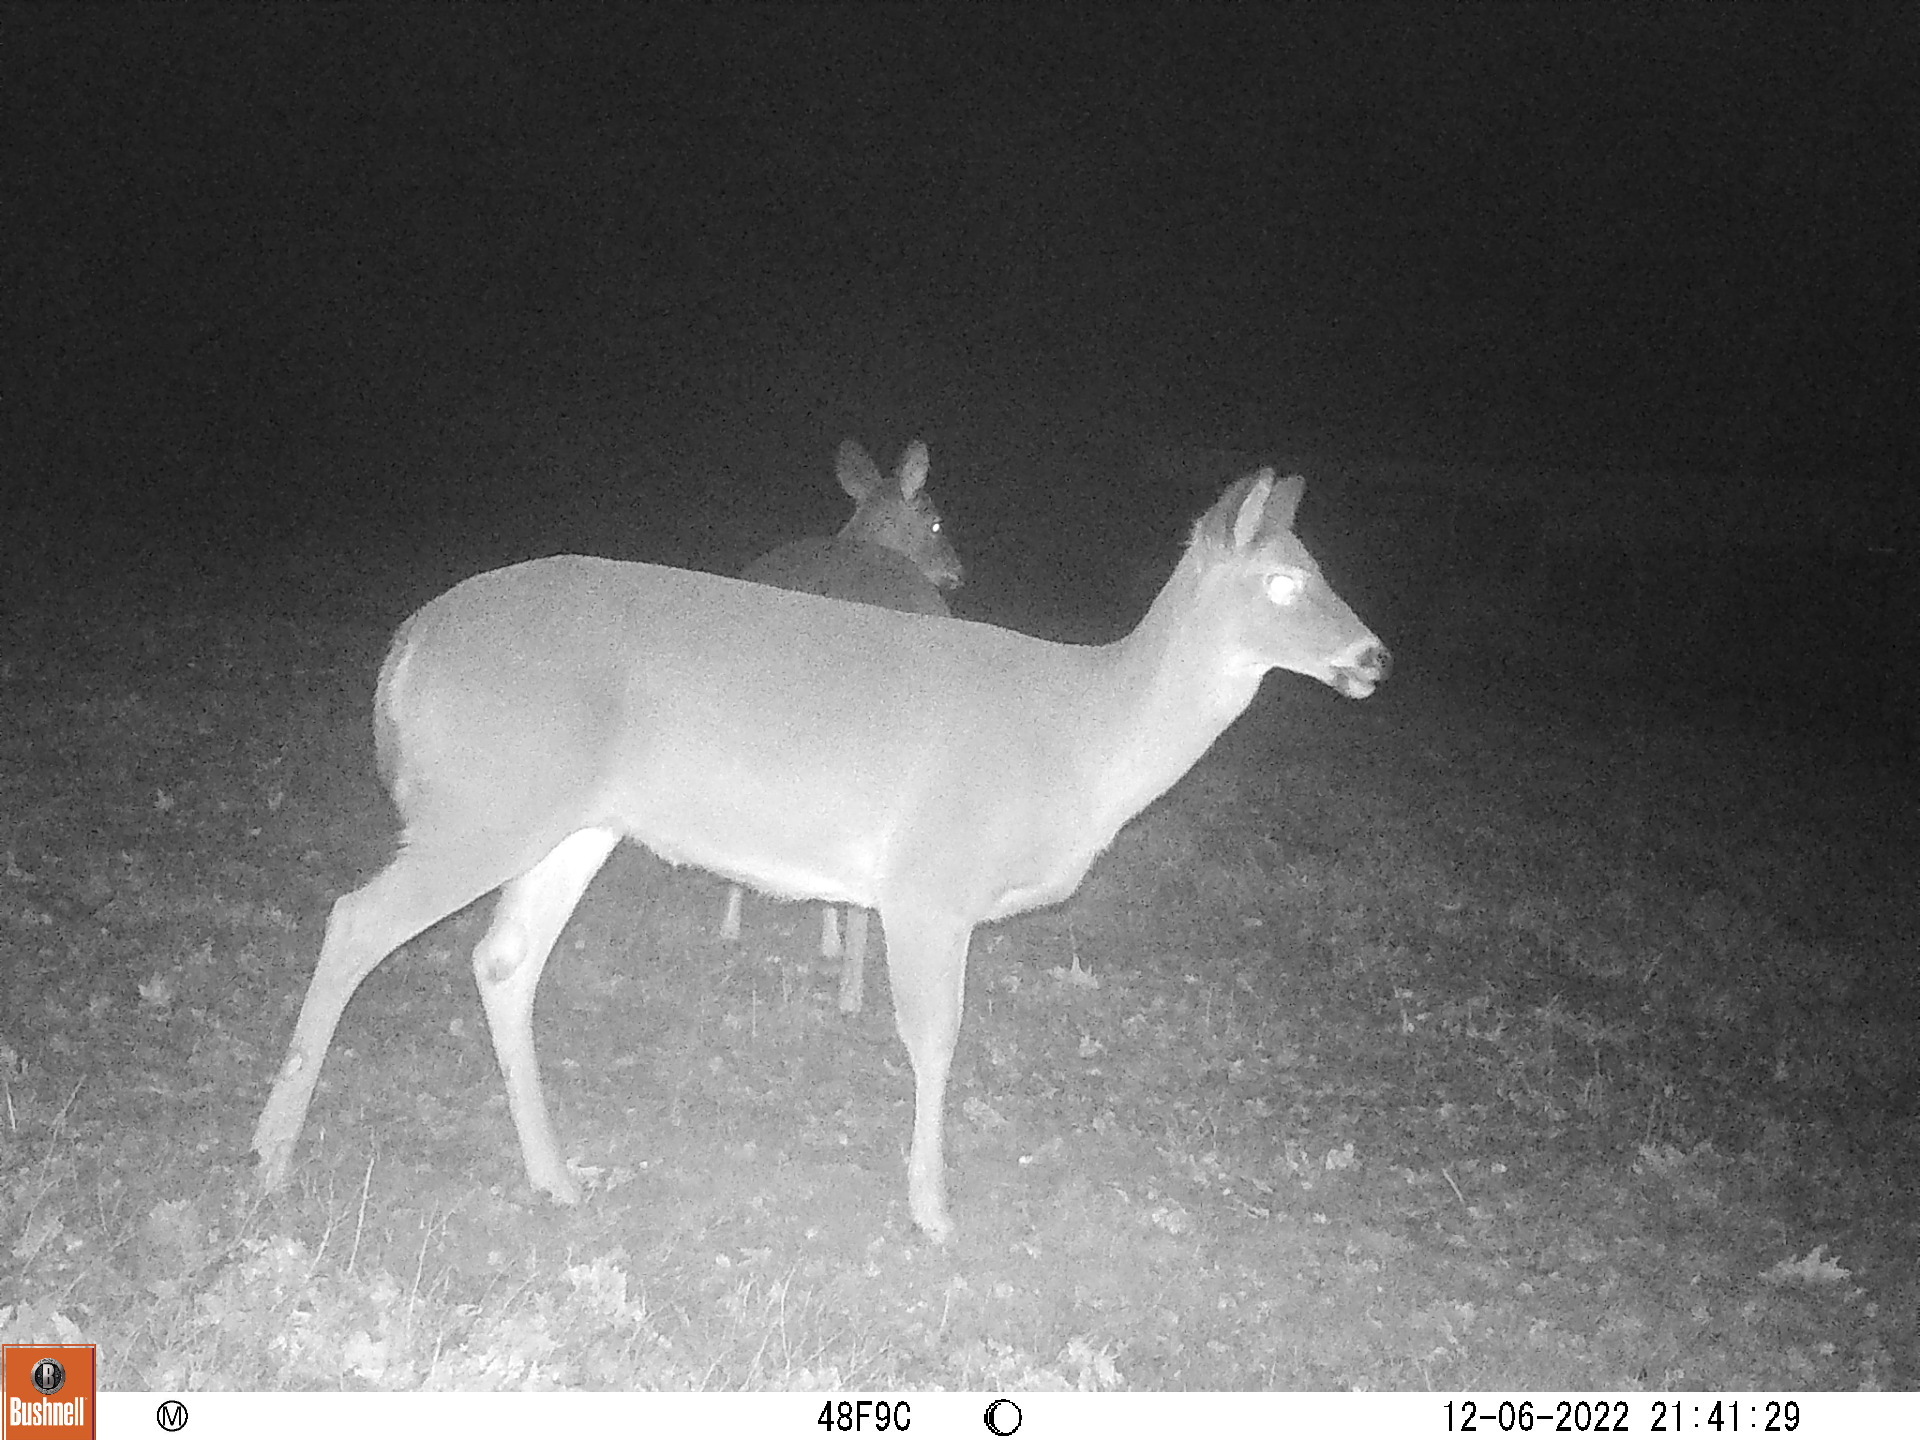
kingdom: Animalia
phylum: Chordata
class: Mammalia
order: Artiodactyla
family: Cervidae
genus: Odocoileus
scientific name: Odocoileus virginianus
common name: White-tailed deer
